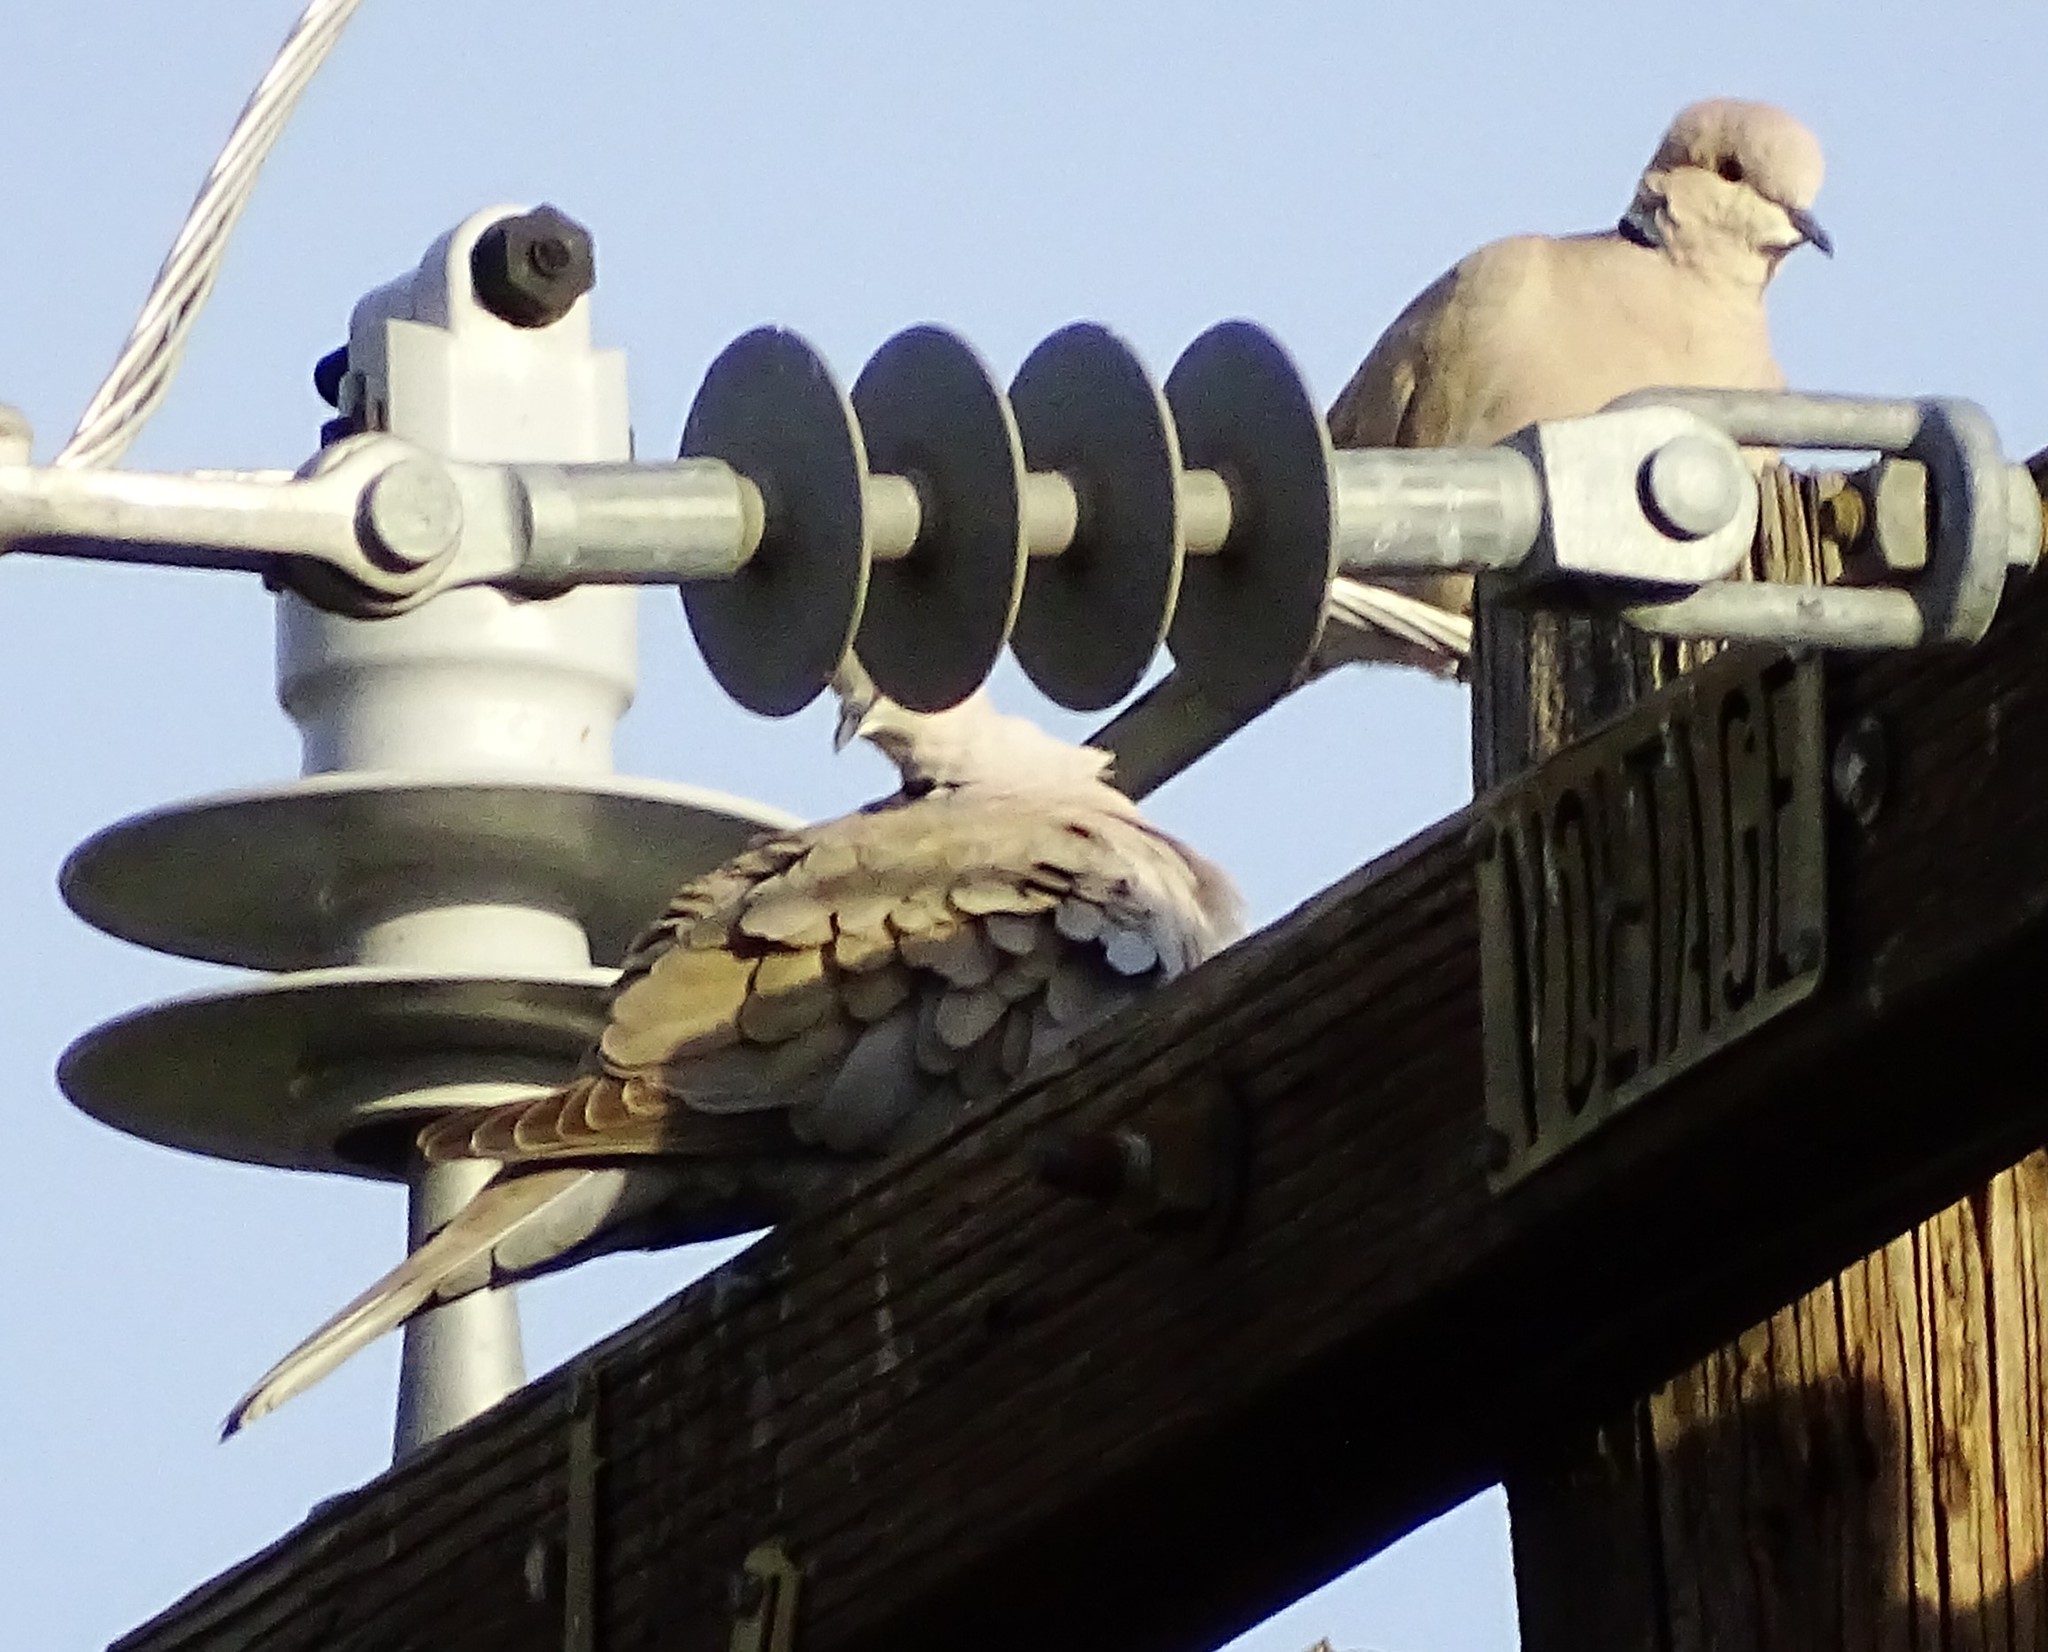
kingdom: Animalia
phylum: Chordata
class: Aves
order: Columbiformes
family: Columbidae
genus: Streptopelia
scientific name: Streptopelia decaocto
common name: Eurasian collared dove
